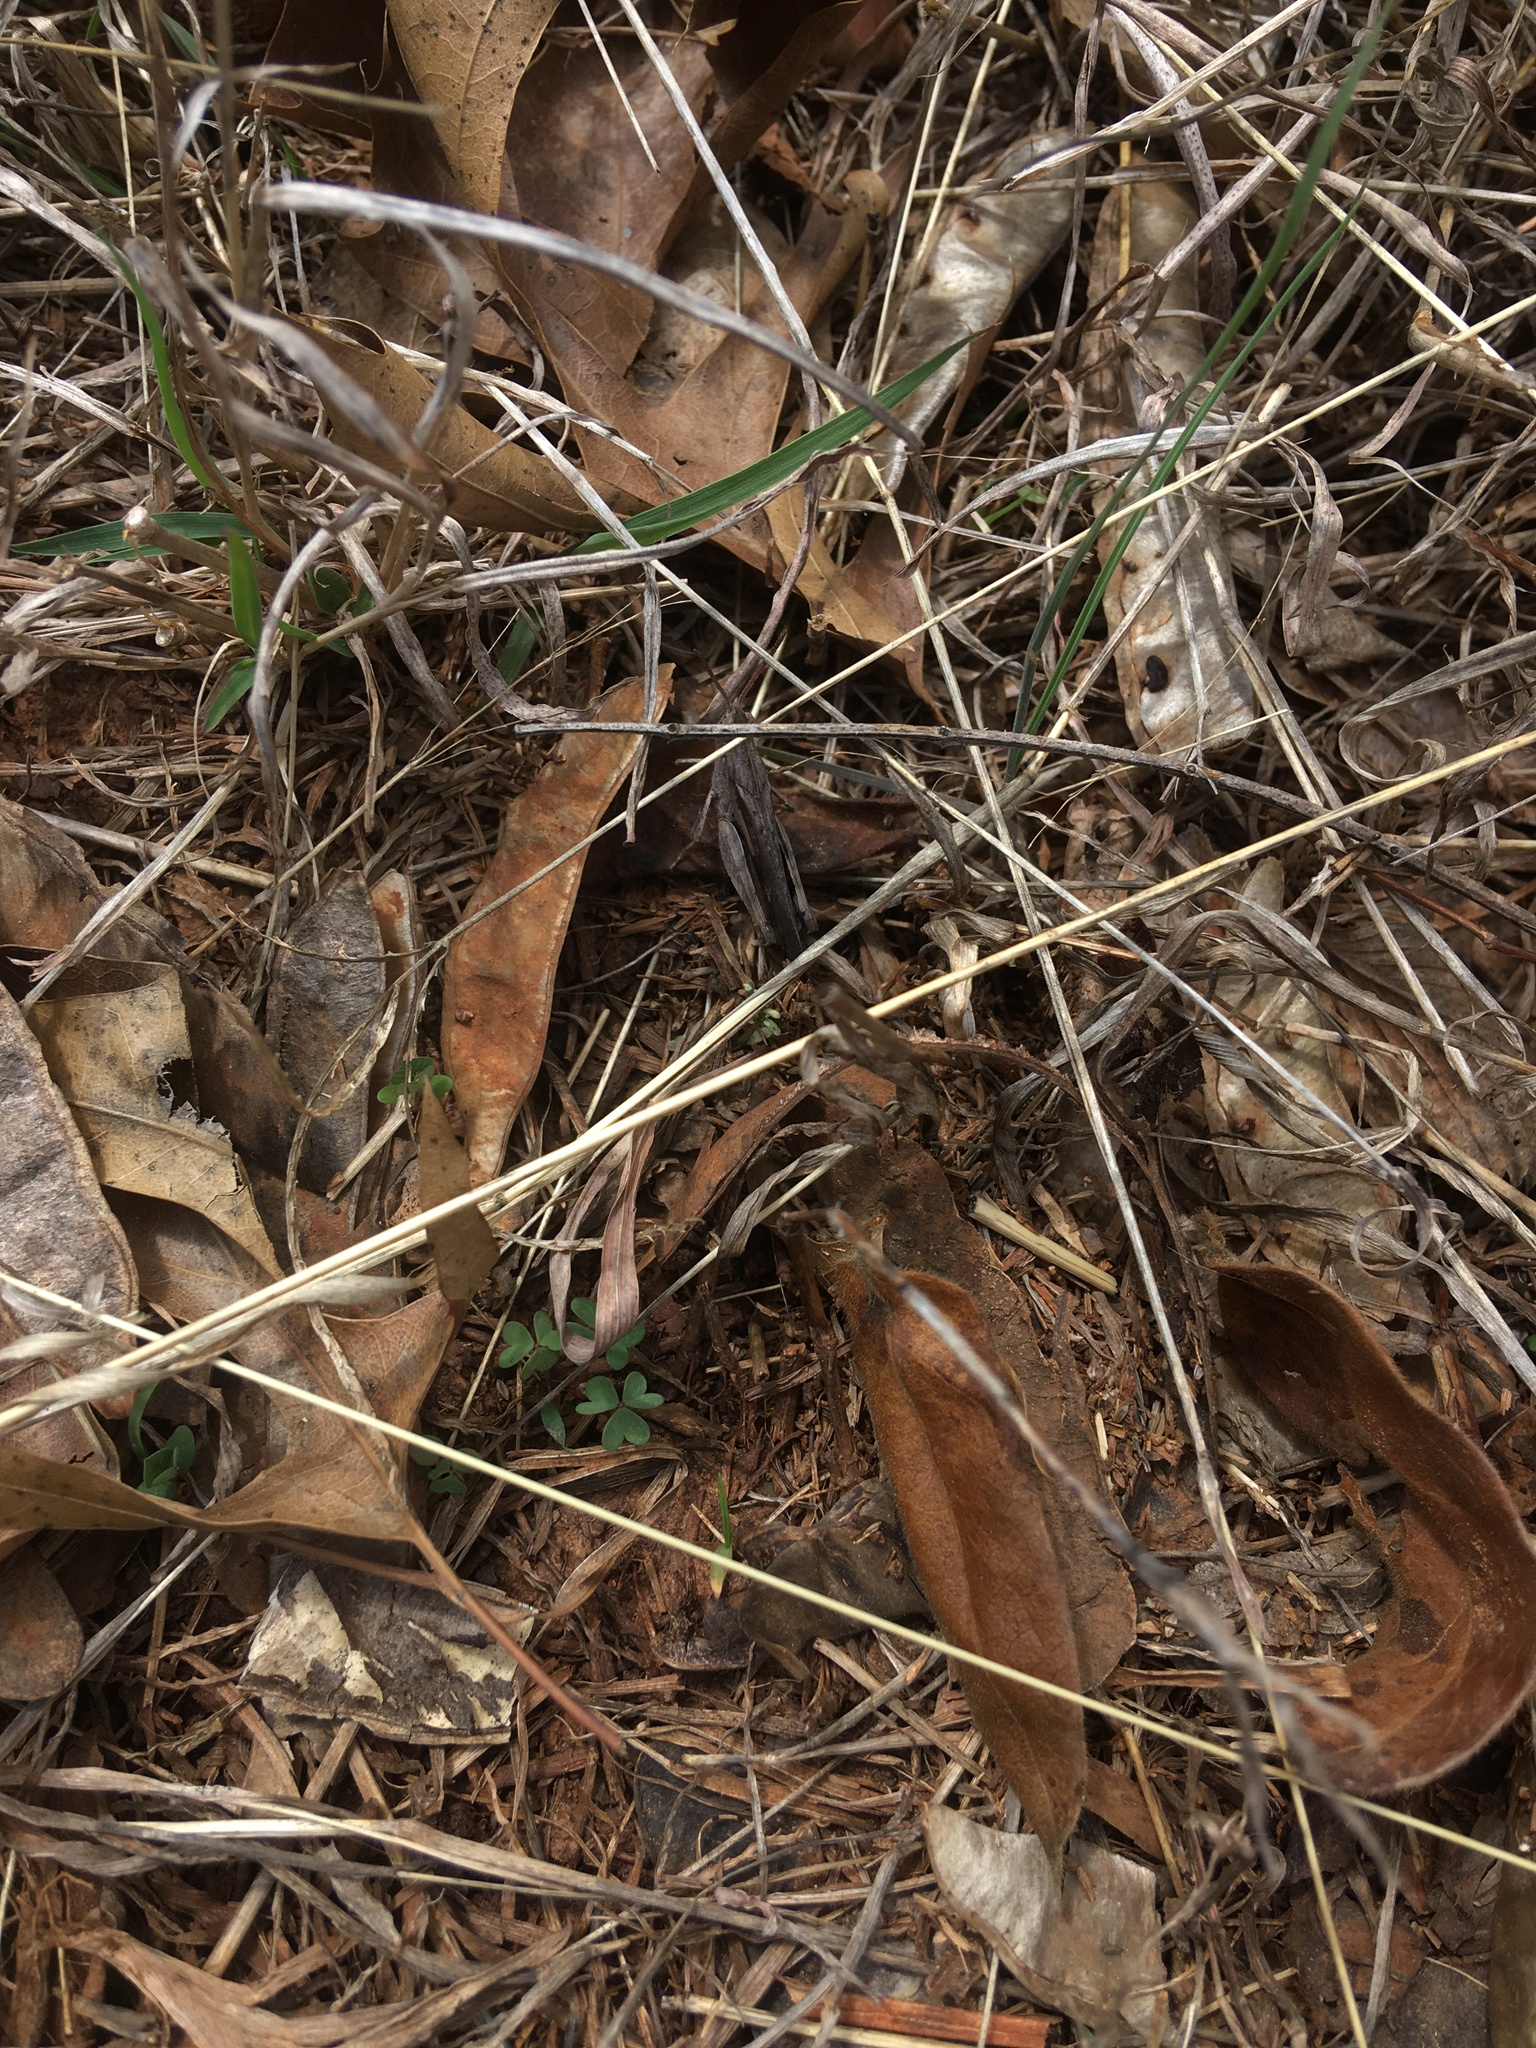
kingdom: Animalia
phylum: Arthropoda
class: Insecta
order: Orthoptera
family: Acrididae
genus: Chortophaga
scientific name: Chortophaga viridifasciata
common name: Green-striped grasshopper
